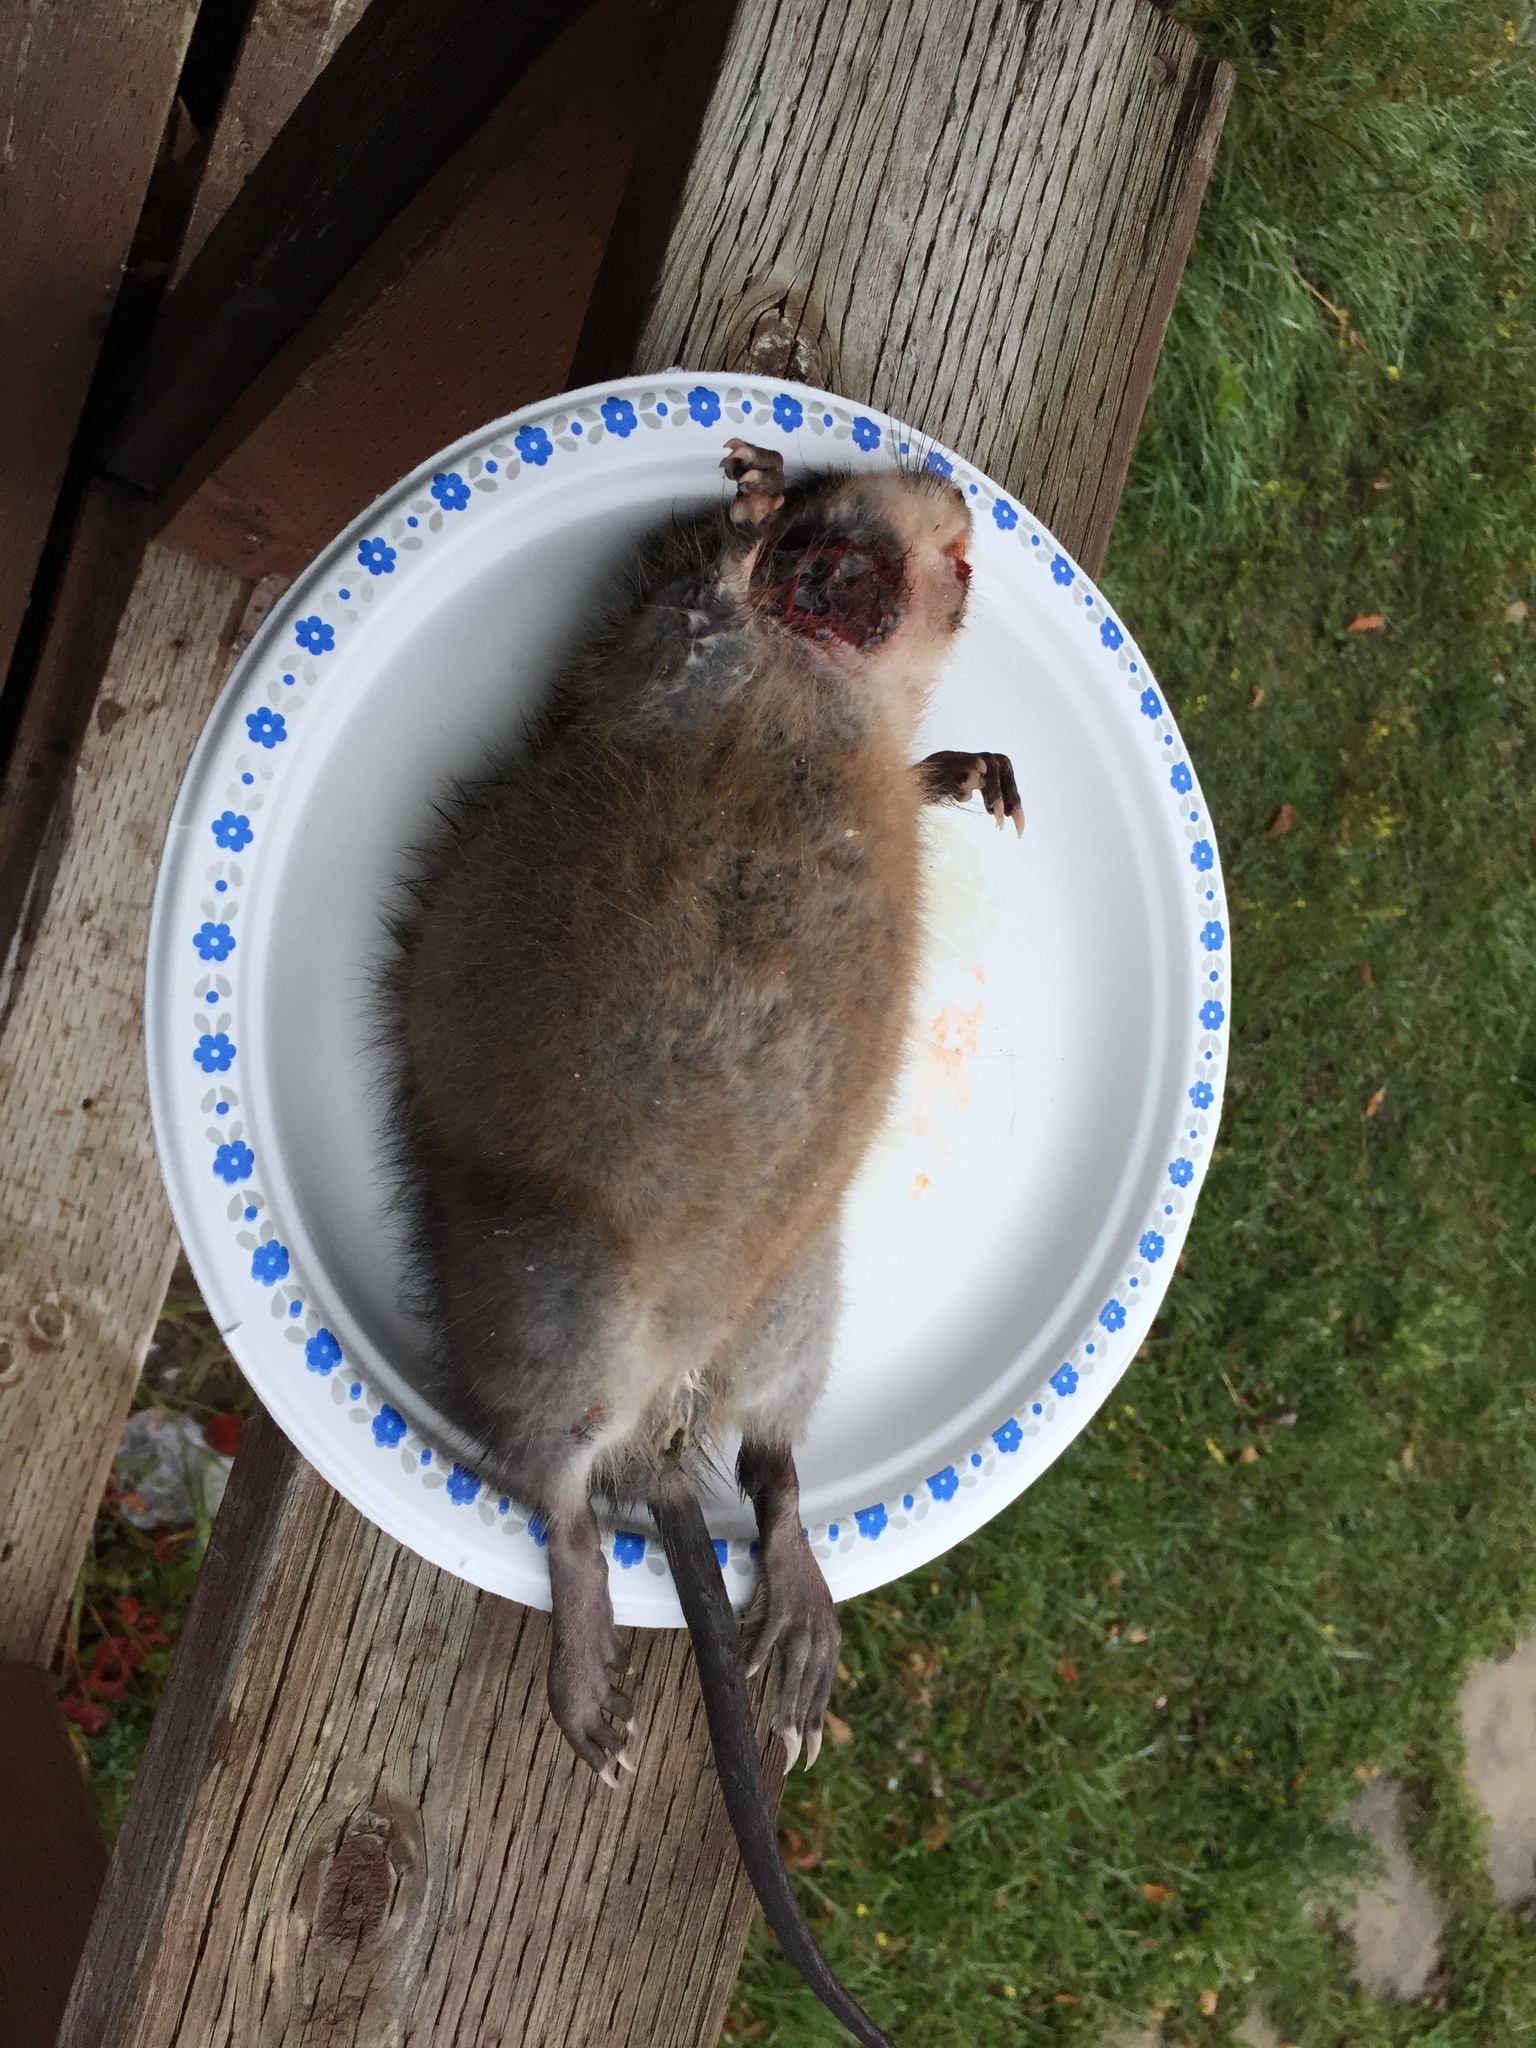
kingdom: Animalia
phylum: Chordata
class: Mammalia
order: Rodentia
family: Cricetidae
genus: Ondatra
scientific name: Ondatra zibethicus
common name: Muskrat
